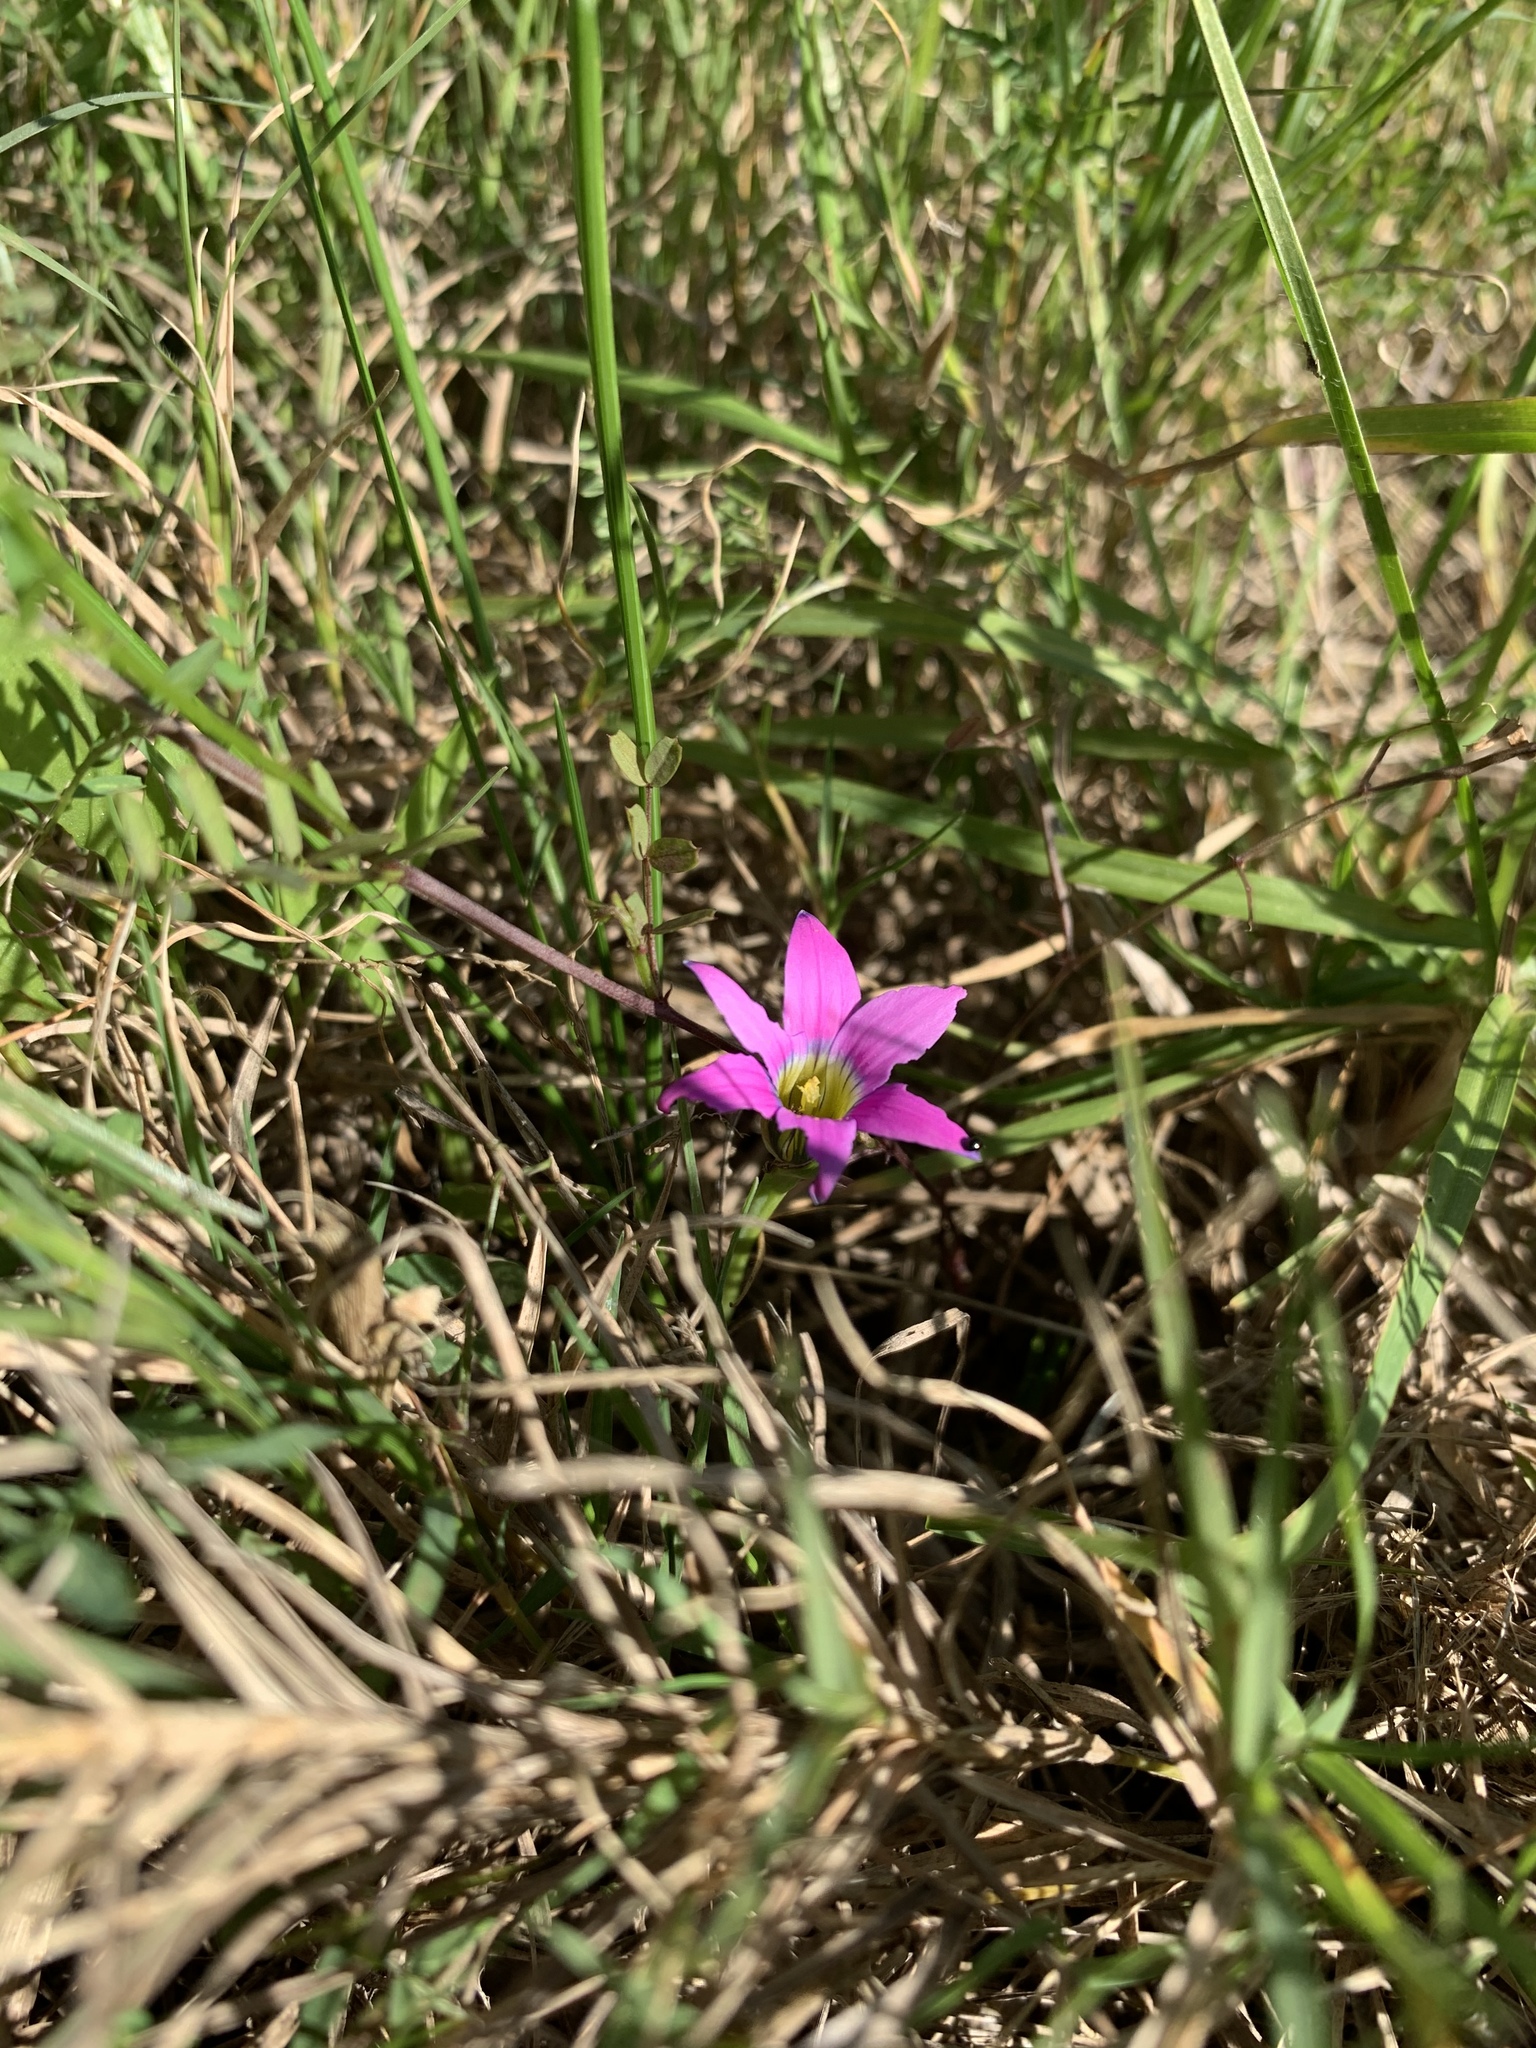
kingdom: Plantae
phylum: Tracheophyta
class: Liliopsida
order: Asparagales
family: Iridaceae
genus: Romulea
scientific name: Romulea rosea
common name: Oniongrass
